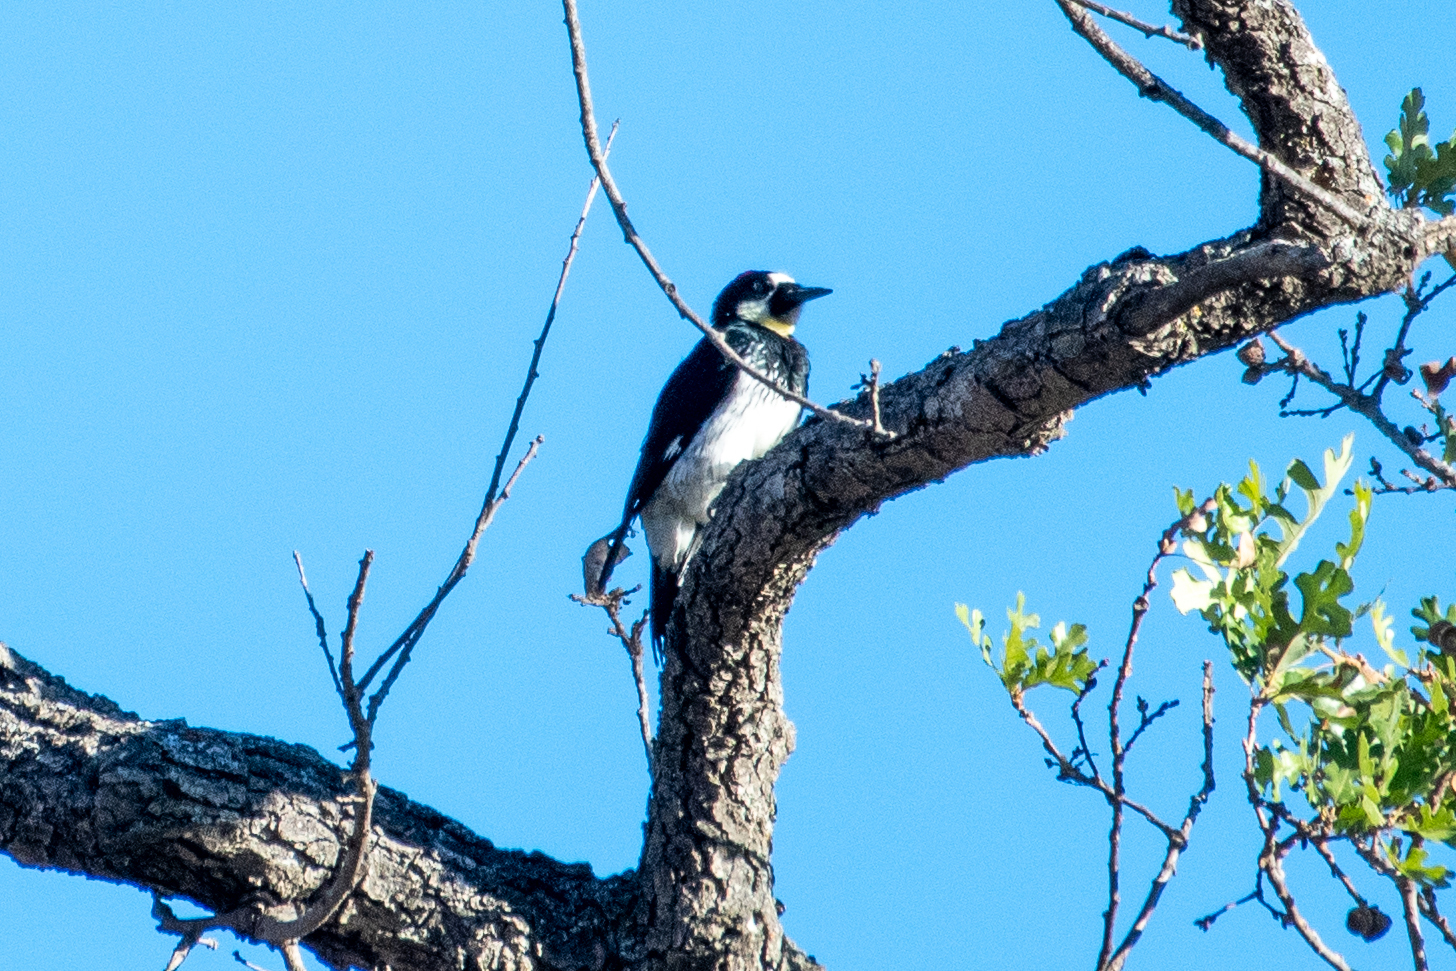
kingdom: Animalia
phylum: Chordata
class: Aves
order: Piciformes
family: Picidae
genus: Melanerpes
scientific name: Melanerpes formicivorus
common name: Acorn woodpecker
